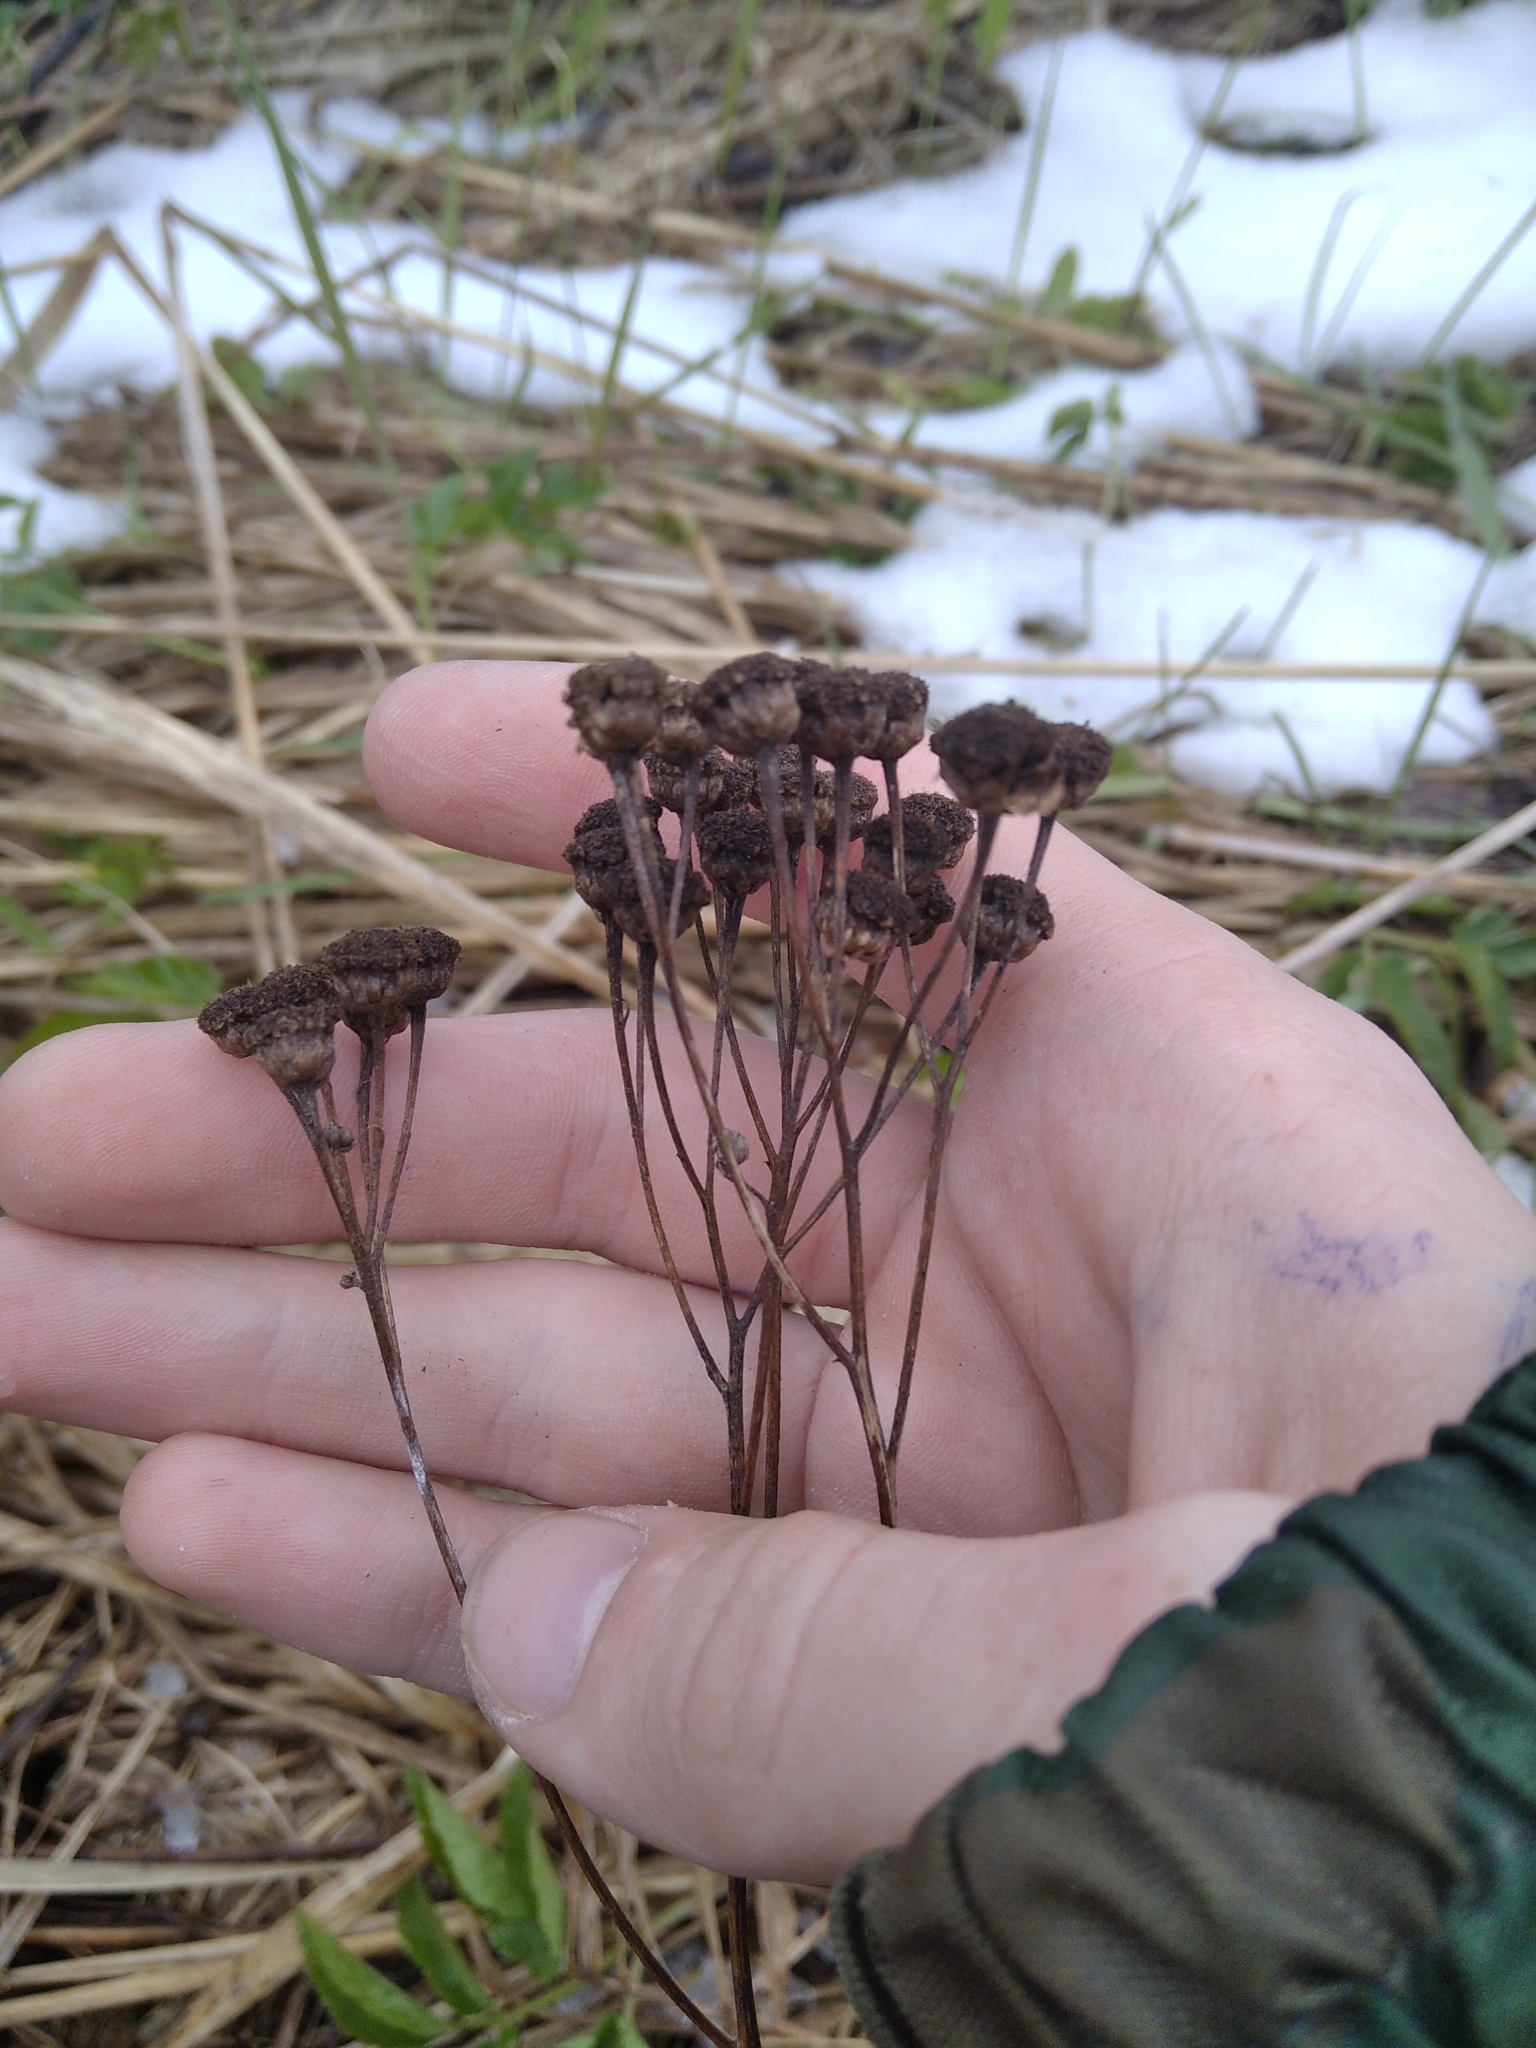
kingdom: Plantae
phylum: Tracheophyta
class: Magnoliopsida
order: Asterales
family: Asteraceae
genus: Tanacetum
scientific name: Tanacetum vulgare
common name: Common tansy
